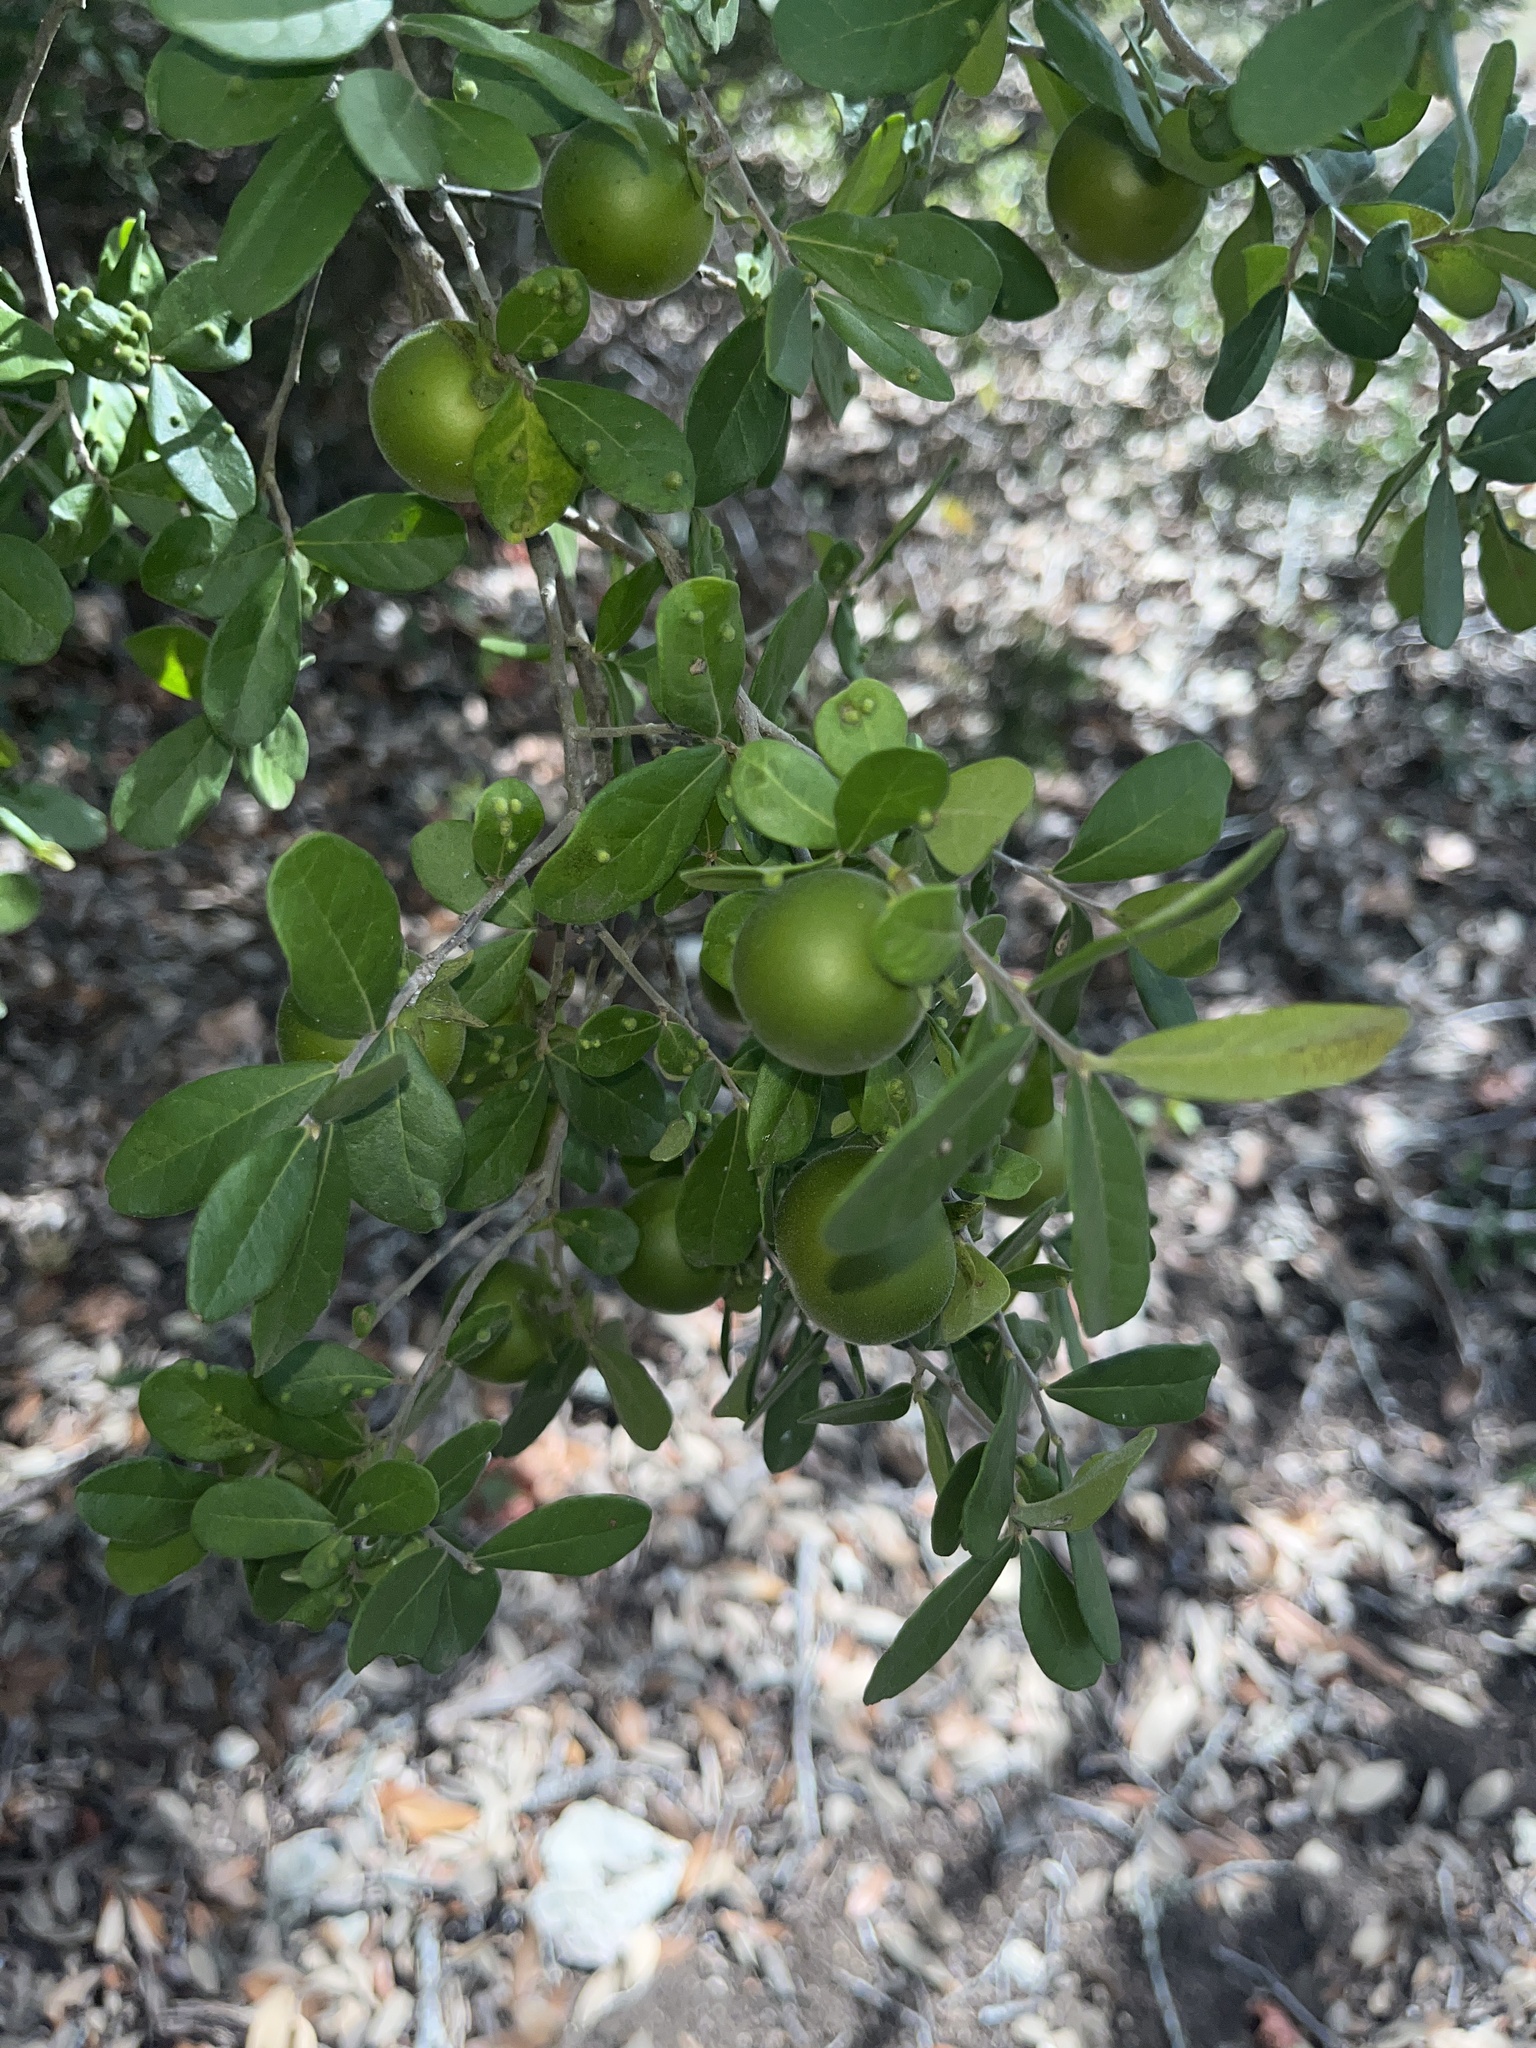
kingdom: Plantae
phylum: Tracheophyta
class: Magnoliopsida
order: Ericales
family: Ebenaceae
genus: Diospyros
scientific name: Diospyros texana
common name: Texas persimmon
